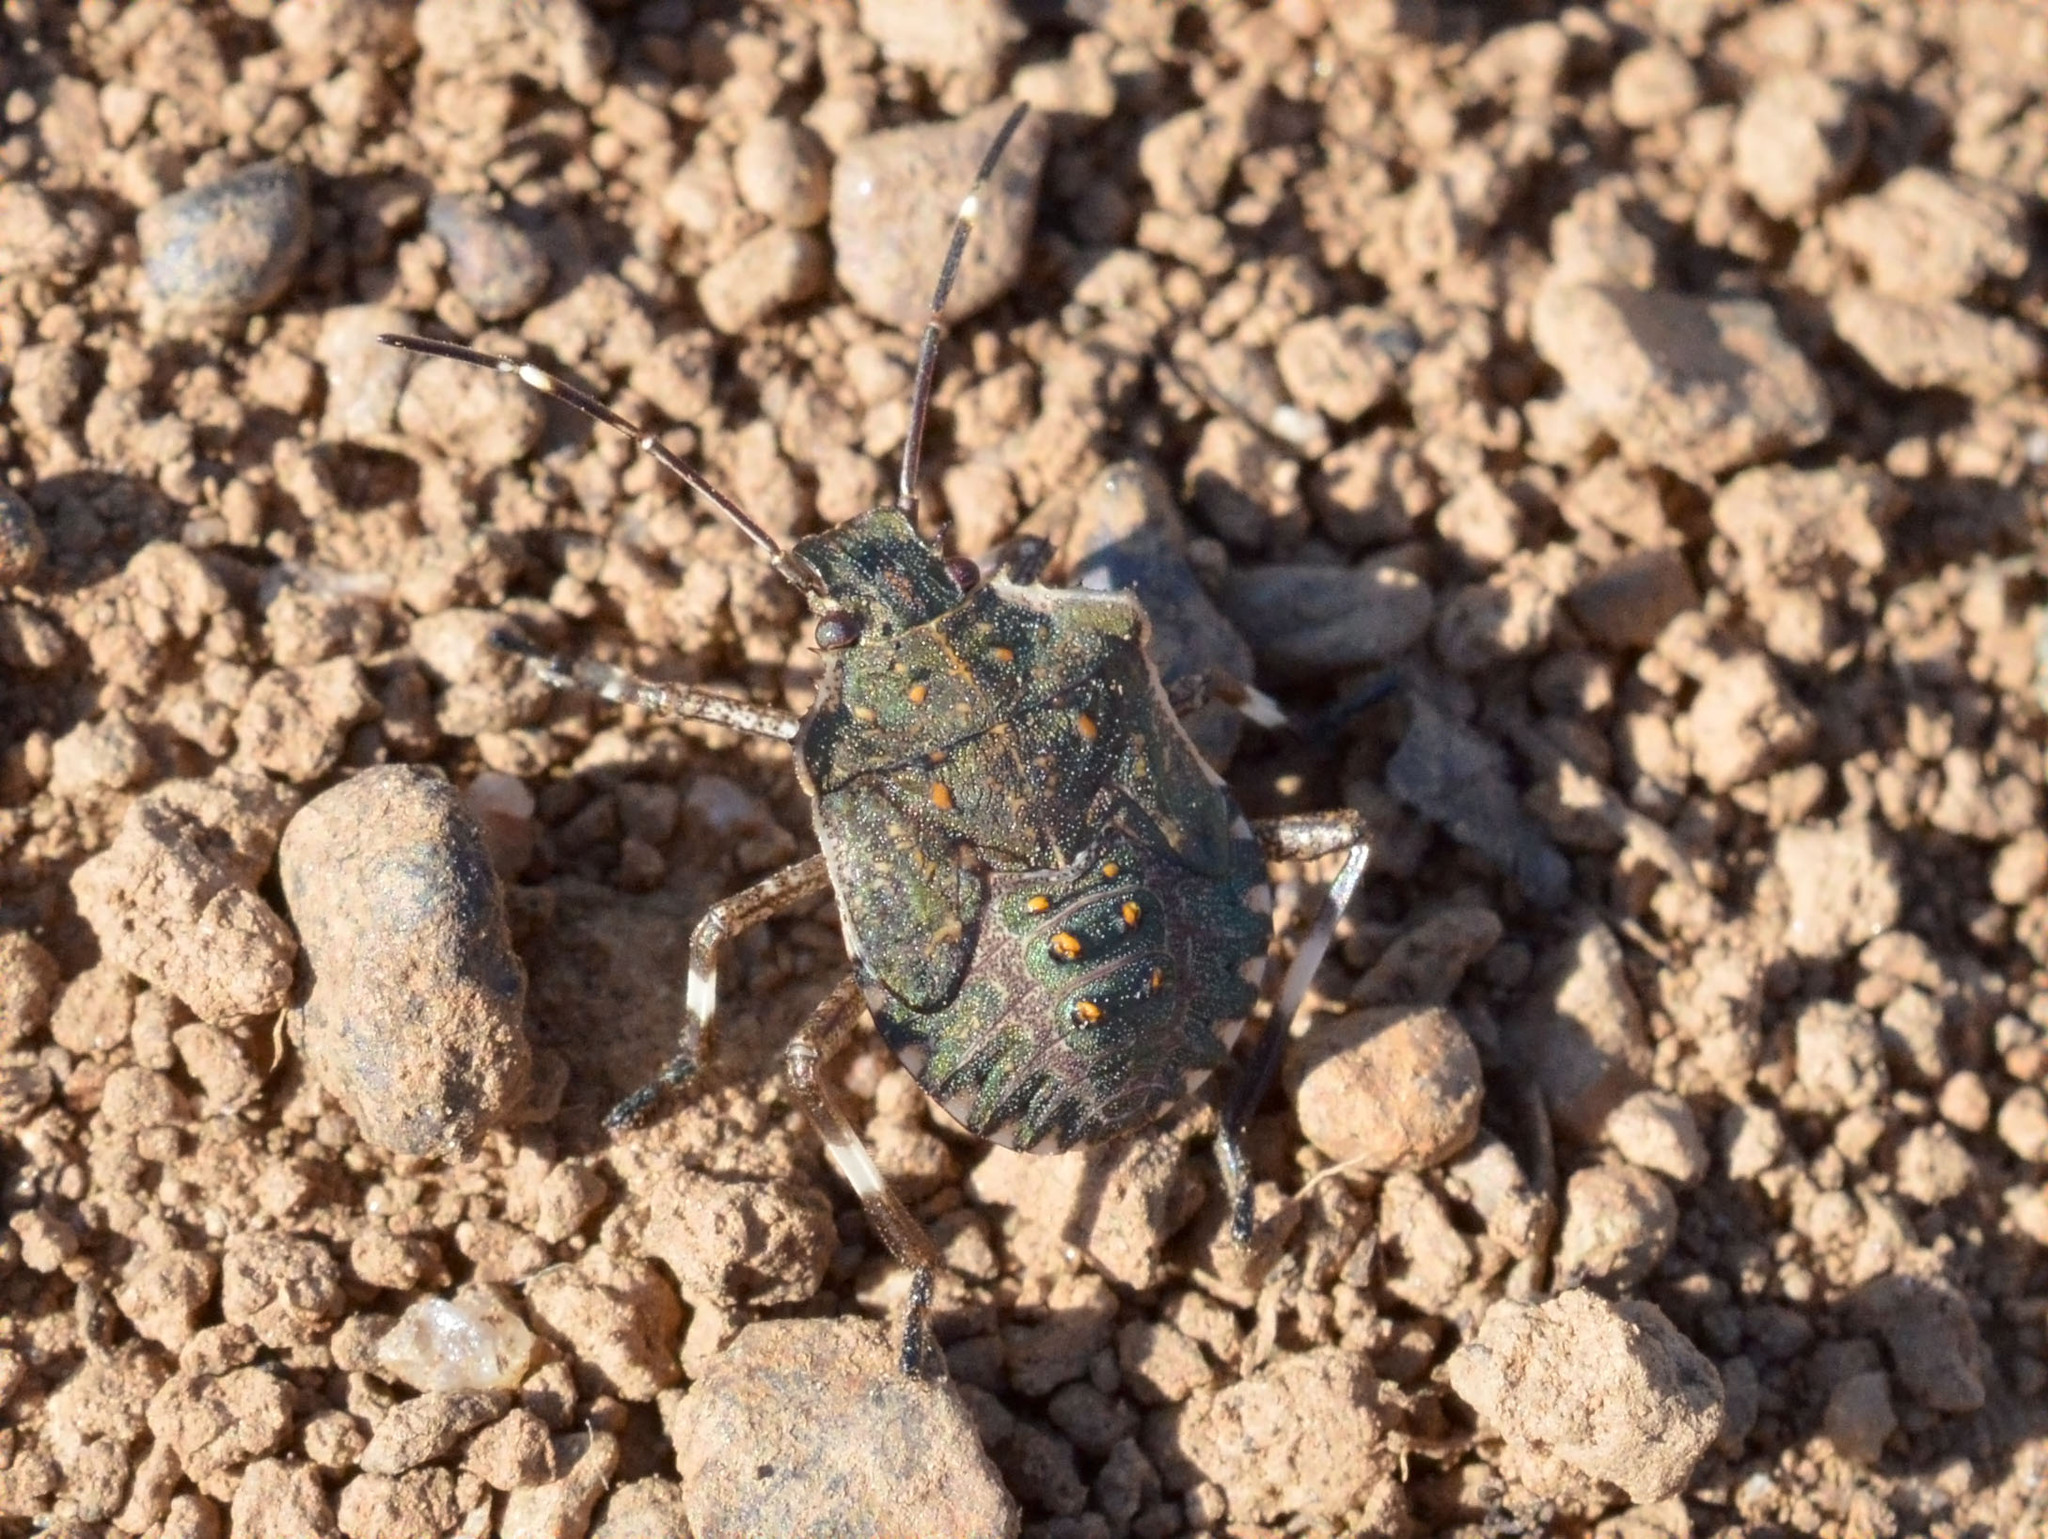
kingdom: Animalia
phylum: Arthropoda
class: Insecta
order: Hemiptera
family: Pentatomidae
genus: Halyomorpha
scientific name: Halyomorpha halys
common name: Brown marmorated stink bug
